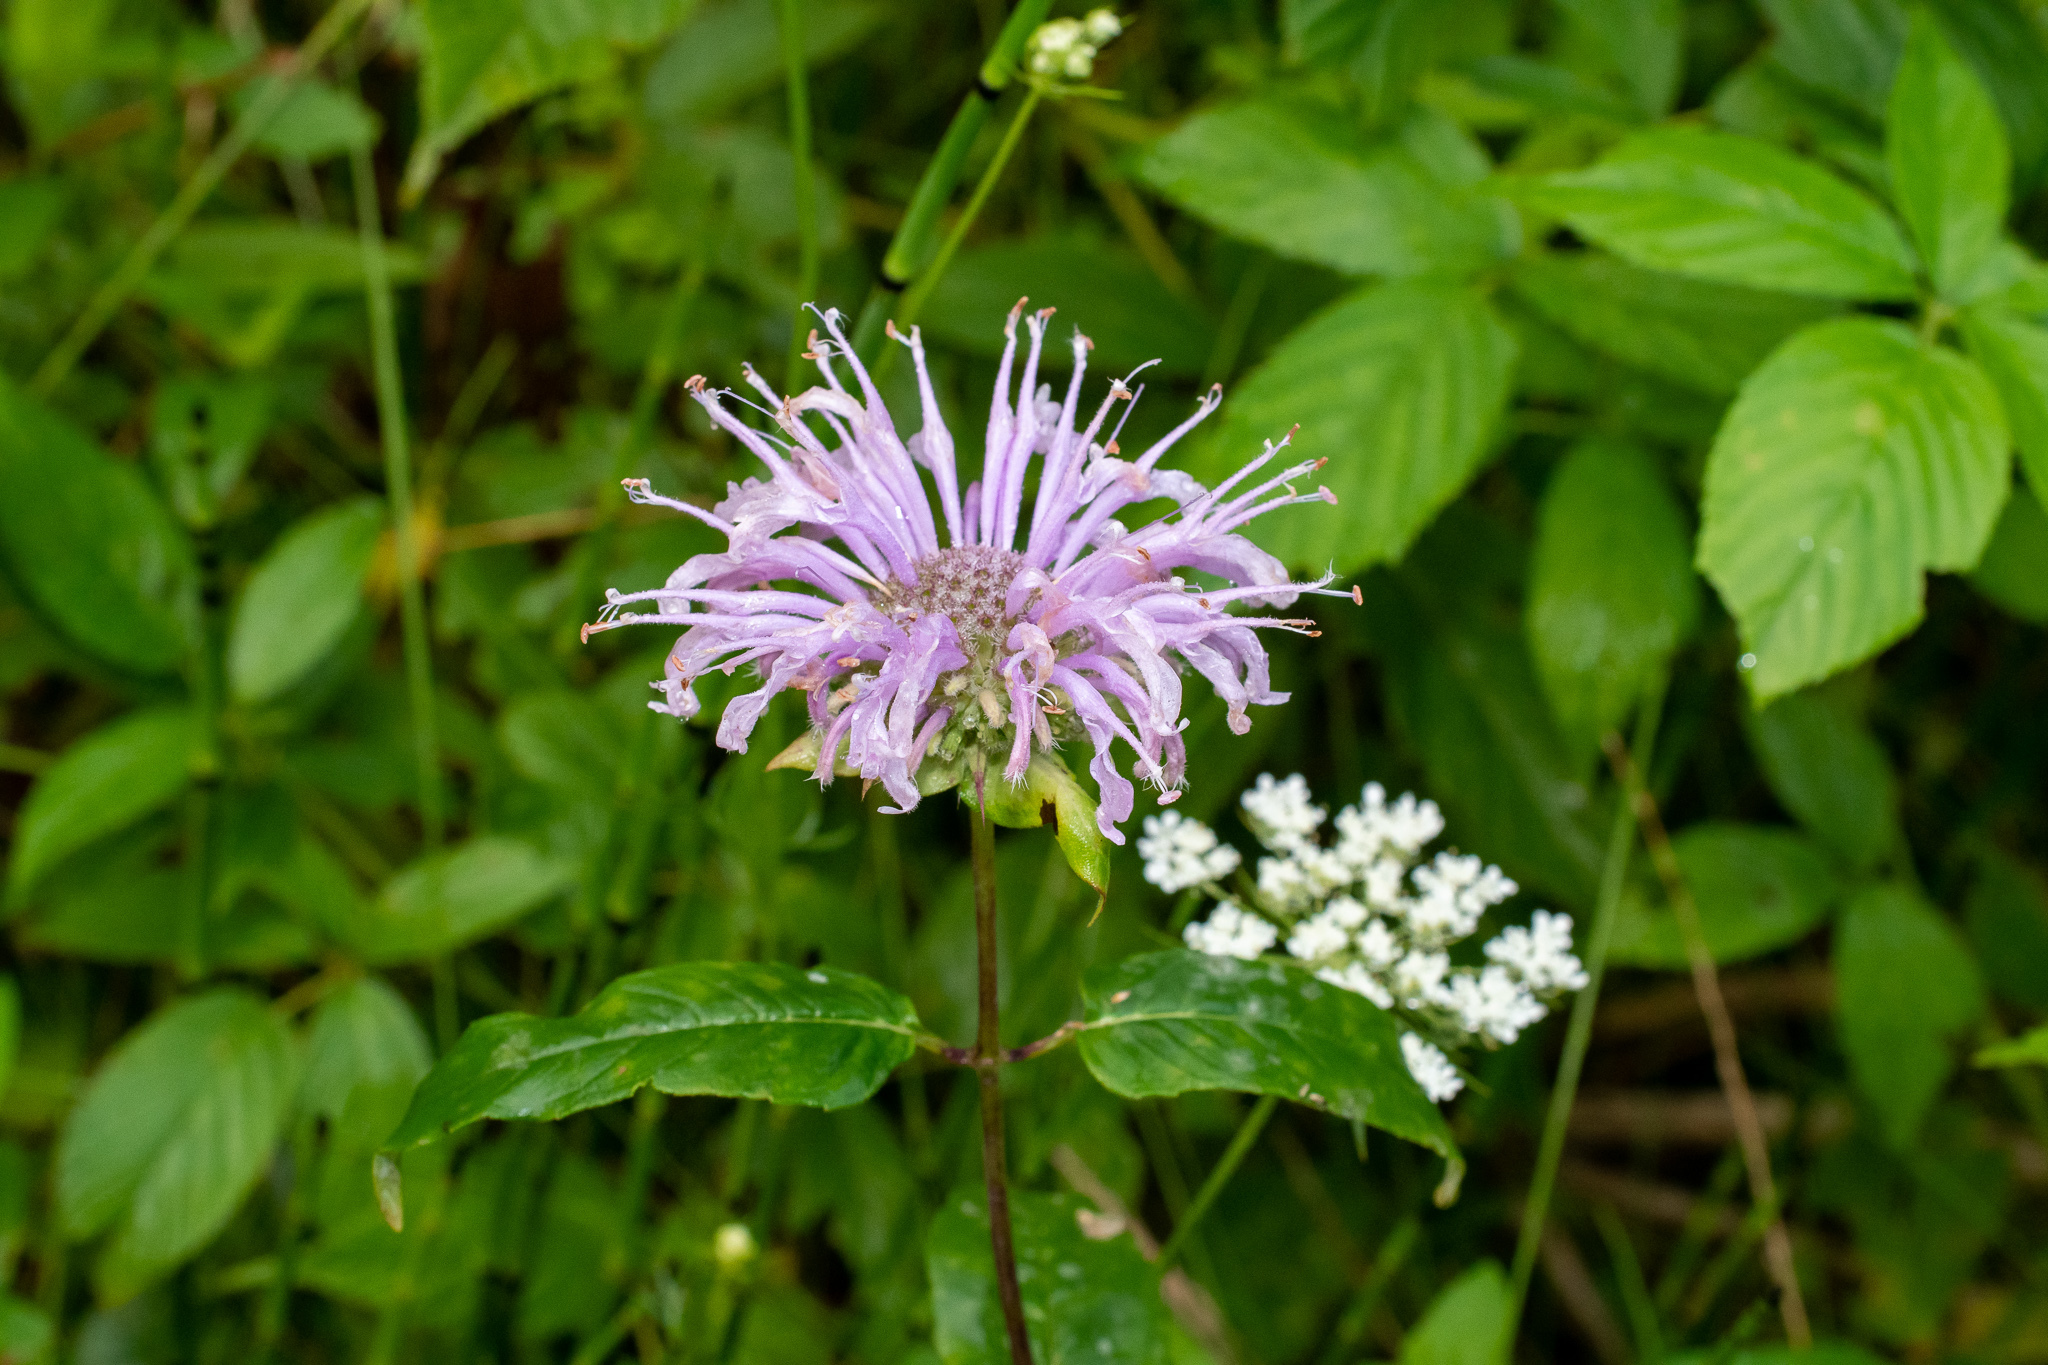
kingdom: Plantae
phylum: Tracheophyta
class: Magnoliopsida
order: Lamiales
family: Lamiaceae
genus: Monarda
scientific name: Monarda fistulosa
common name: Purple beebalm
